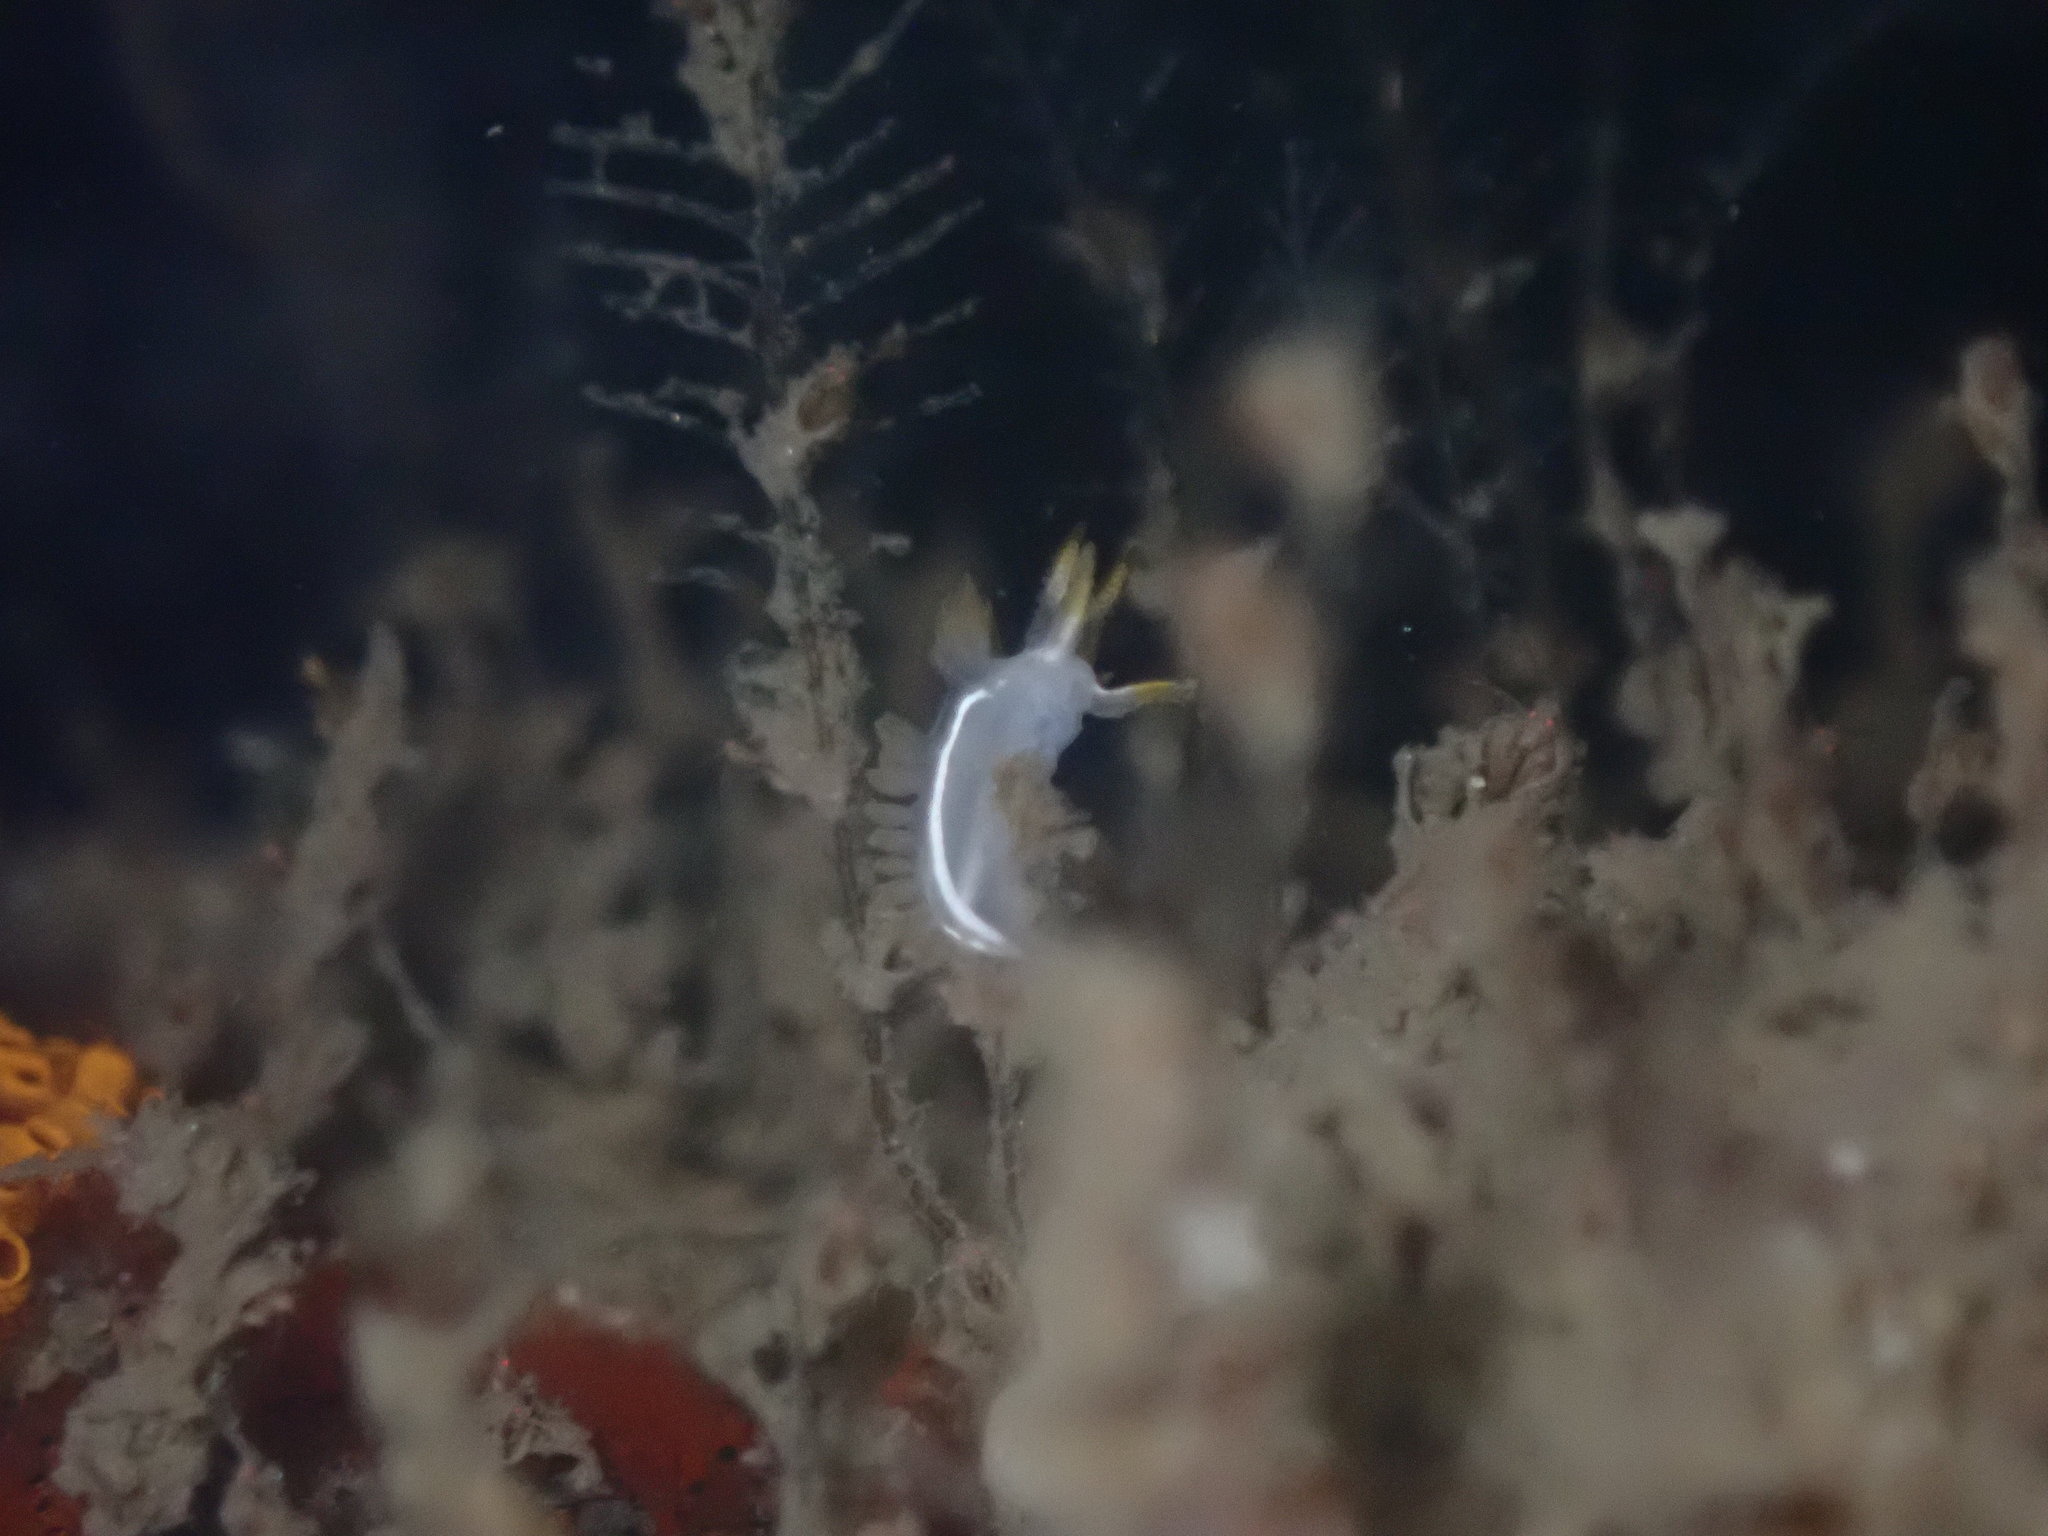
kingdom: Animalia
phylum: Mollusca
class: Gastropoda
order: Nudibranchia
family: Coryphellidae
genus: Coryphella
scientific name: Coryphella trilineata
